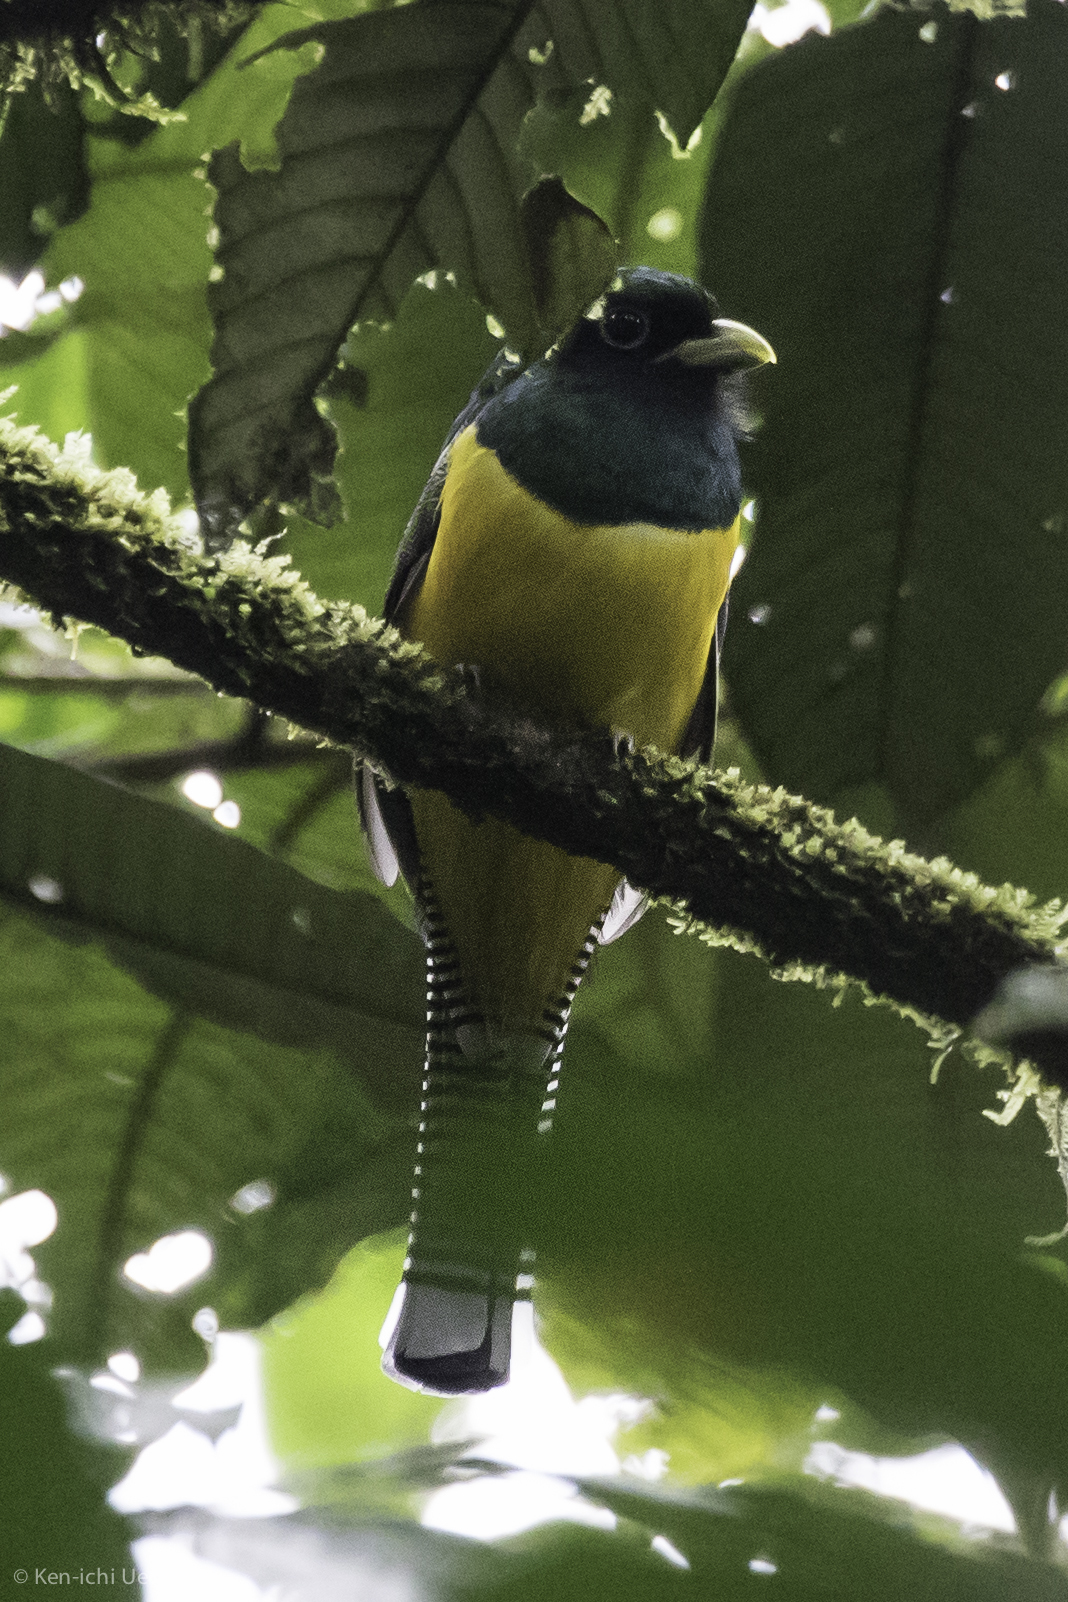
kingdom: Animalia
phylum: Chordata
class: Aves
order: Trogoniformes
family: Trogonidae
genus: Trogon
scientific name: Trogon rufus
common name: Black-throated trogon
